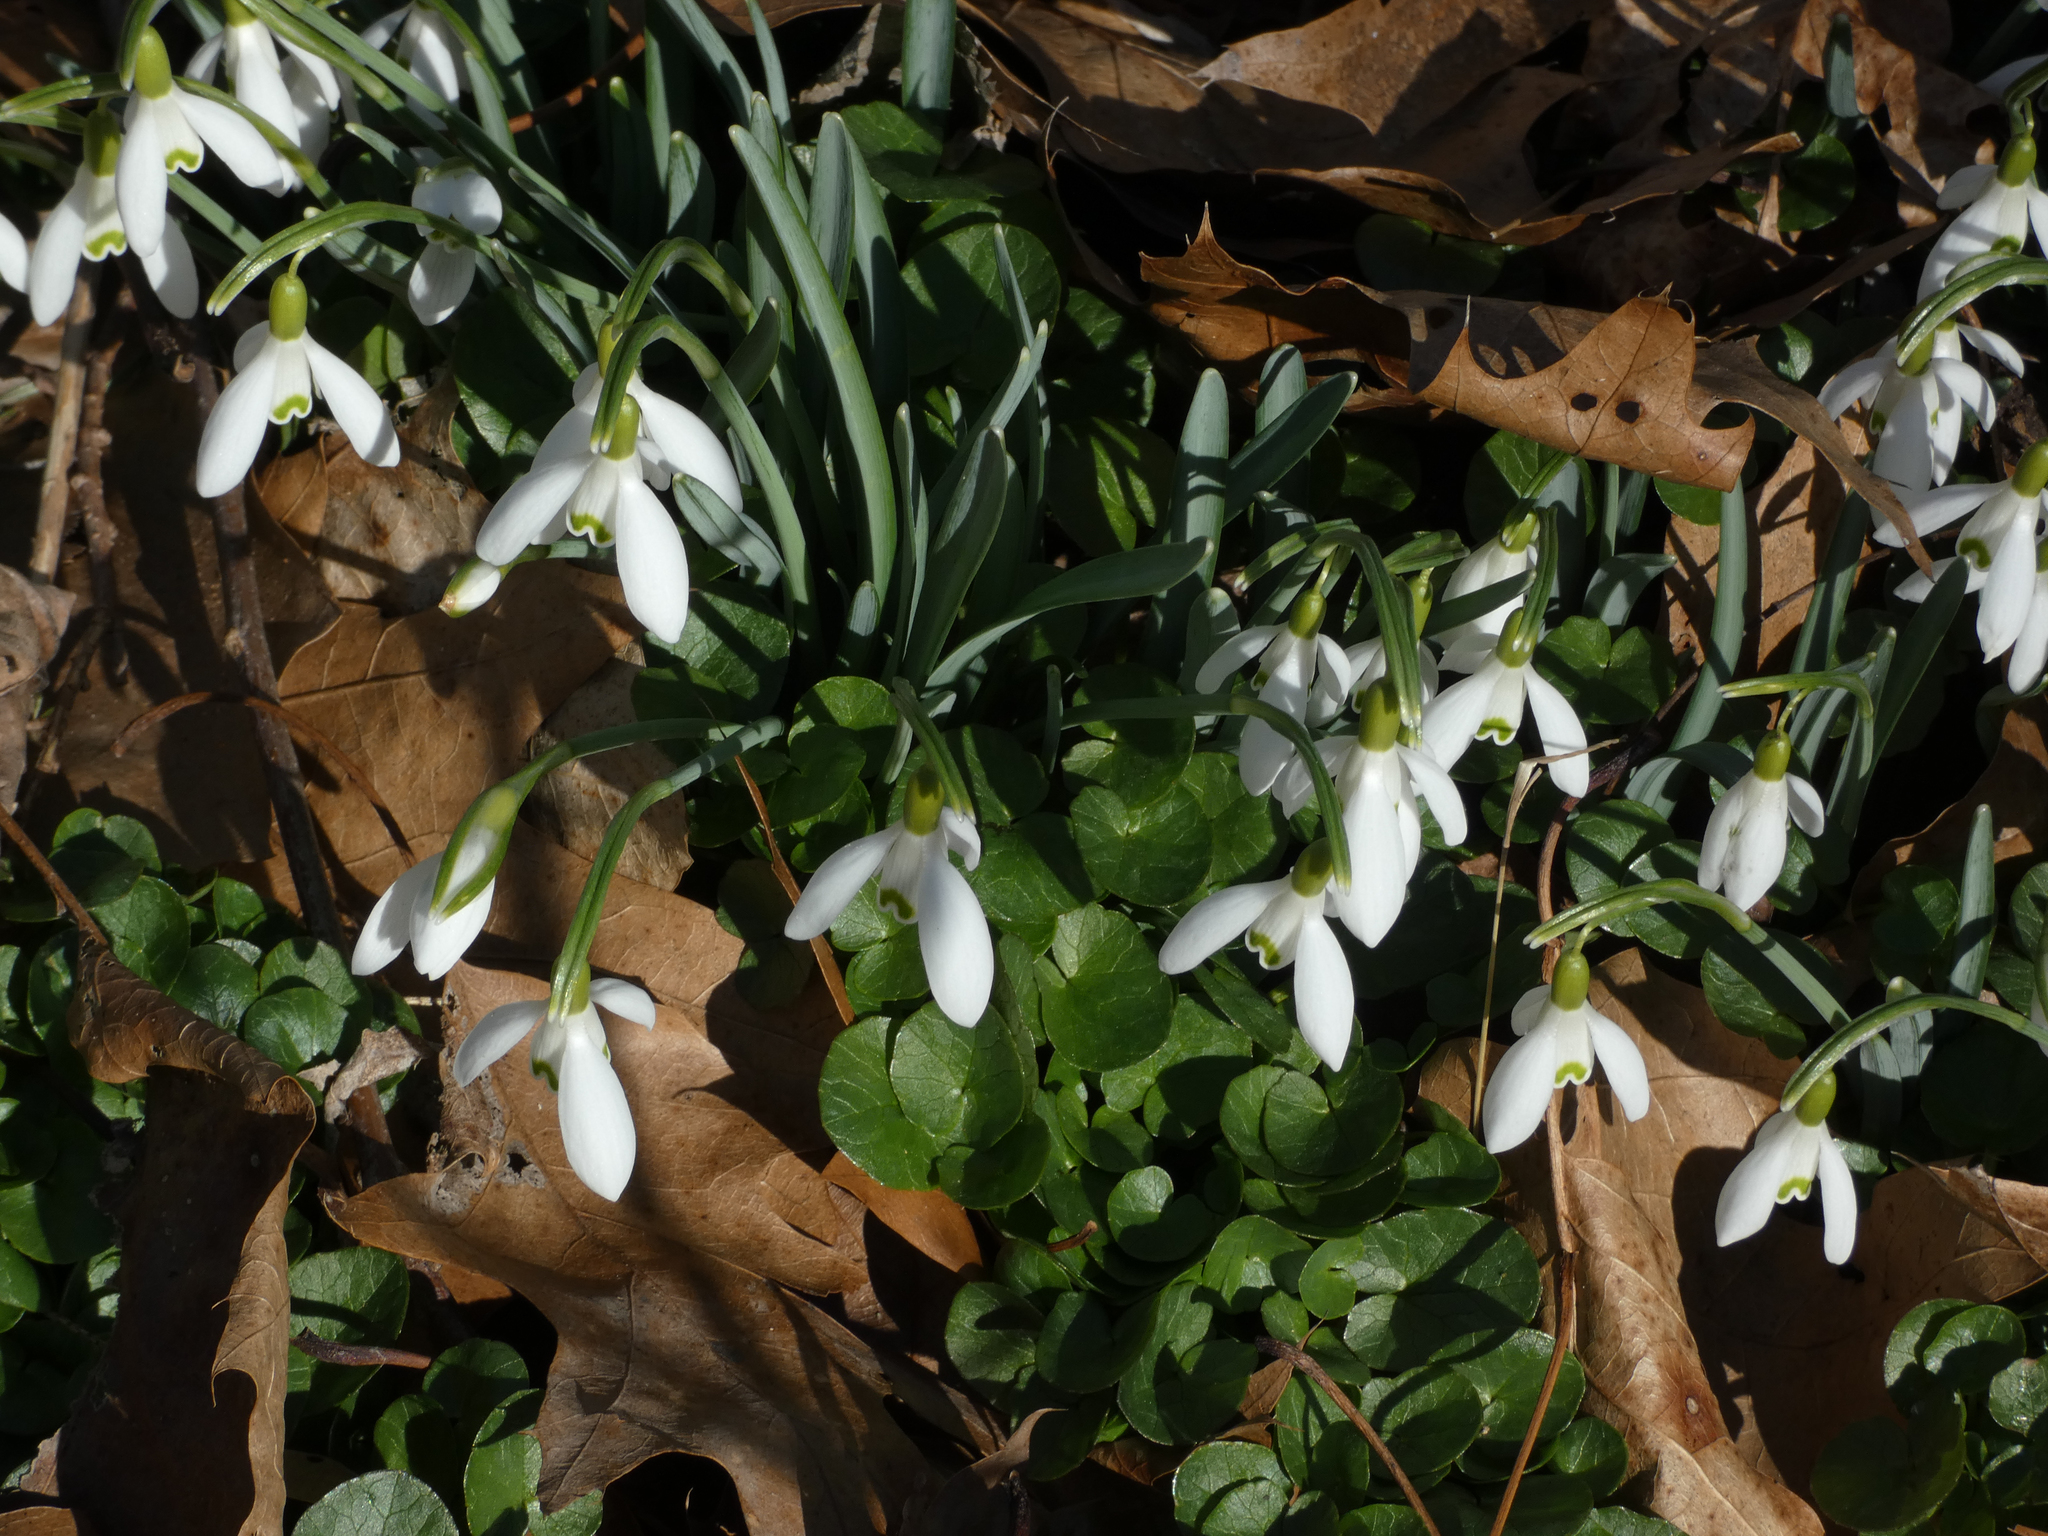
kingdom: Plantae
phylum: Tracheophyta
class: Liliopsida
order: Asparagales
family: Amaryllidaceae
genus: Galanthus
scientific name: Galanthus nivalis
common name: Snowdrop
